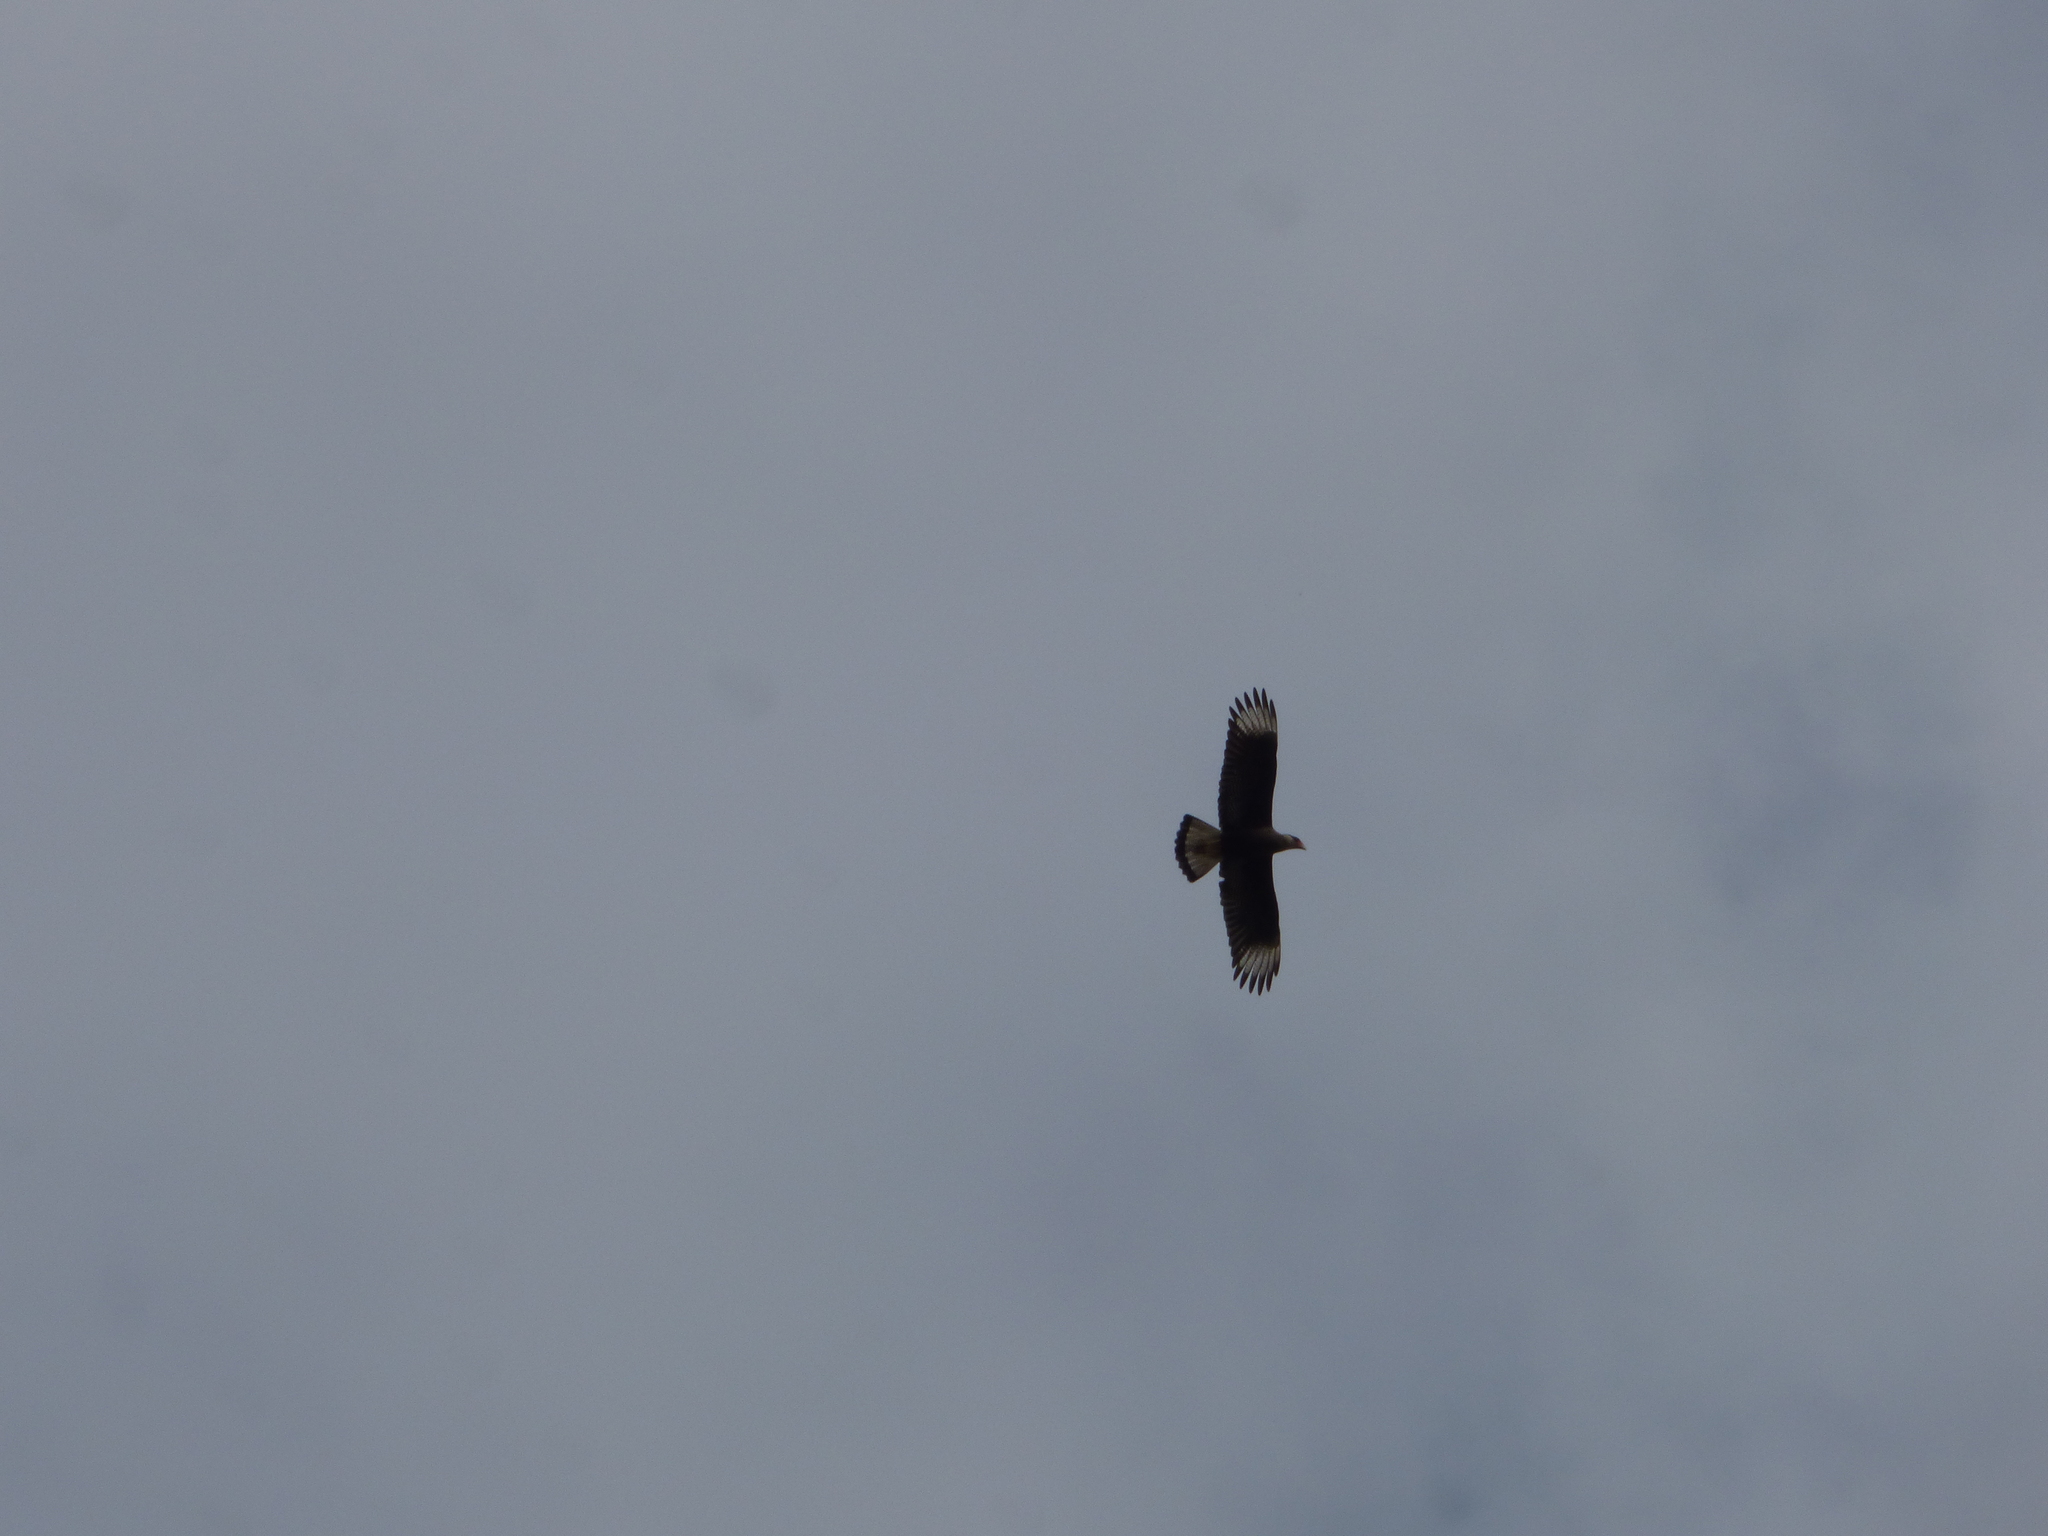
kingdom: Animalia
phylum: Chordata
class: Aves
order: Falconiformes
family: Falconidae
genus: Caracara
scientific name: Caracara plancus
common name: Southern caracara
